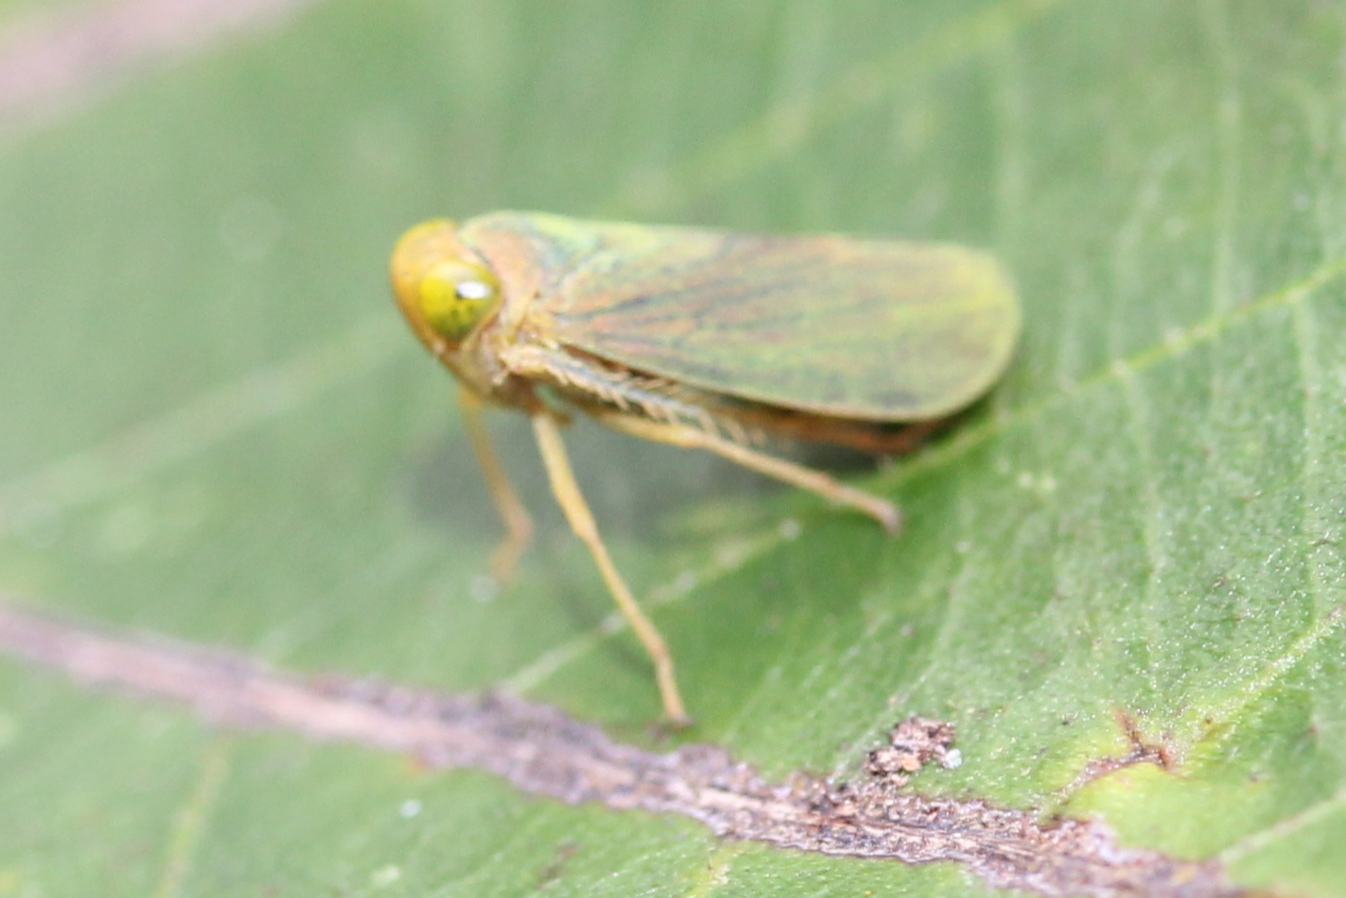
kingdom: Animalia
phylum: Arthropoda
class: Insecta
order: Hemiptera
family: Cicadellidae
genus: Jikradia
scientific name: Jikradia olitoria
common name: Coppery leafhopper
